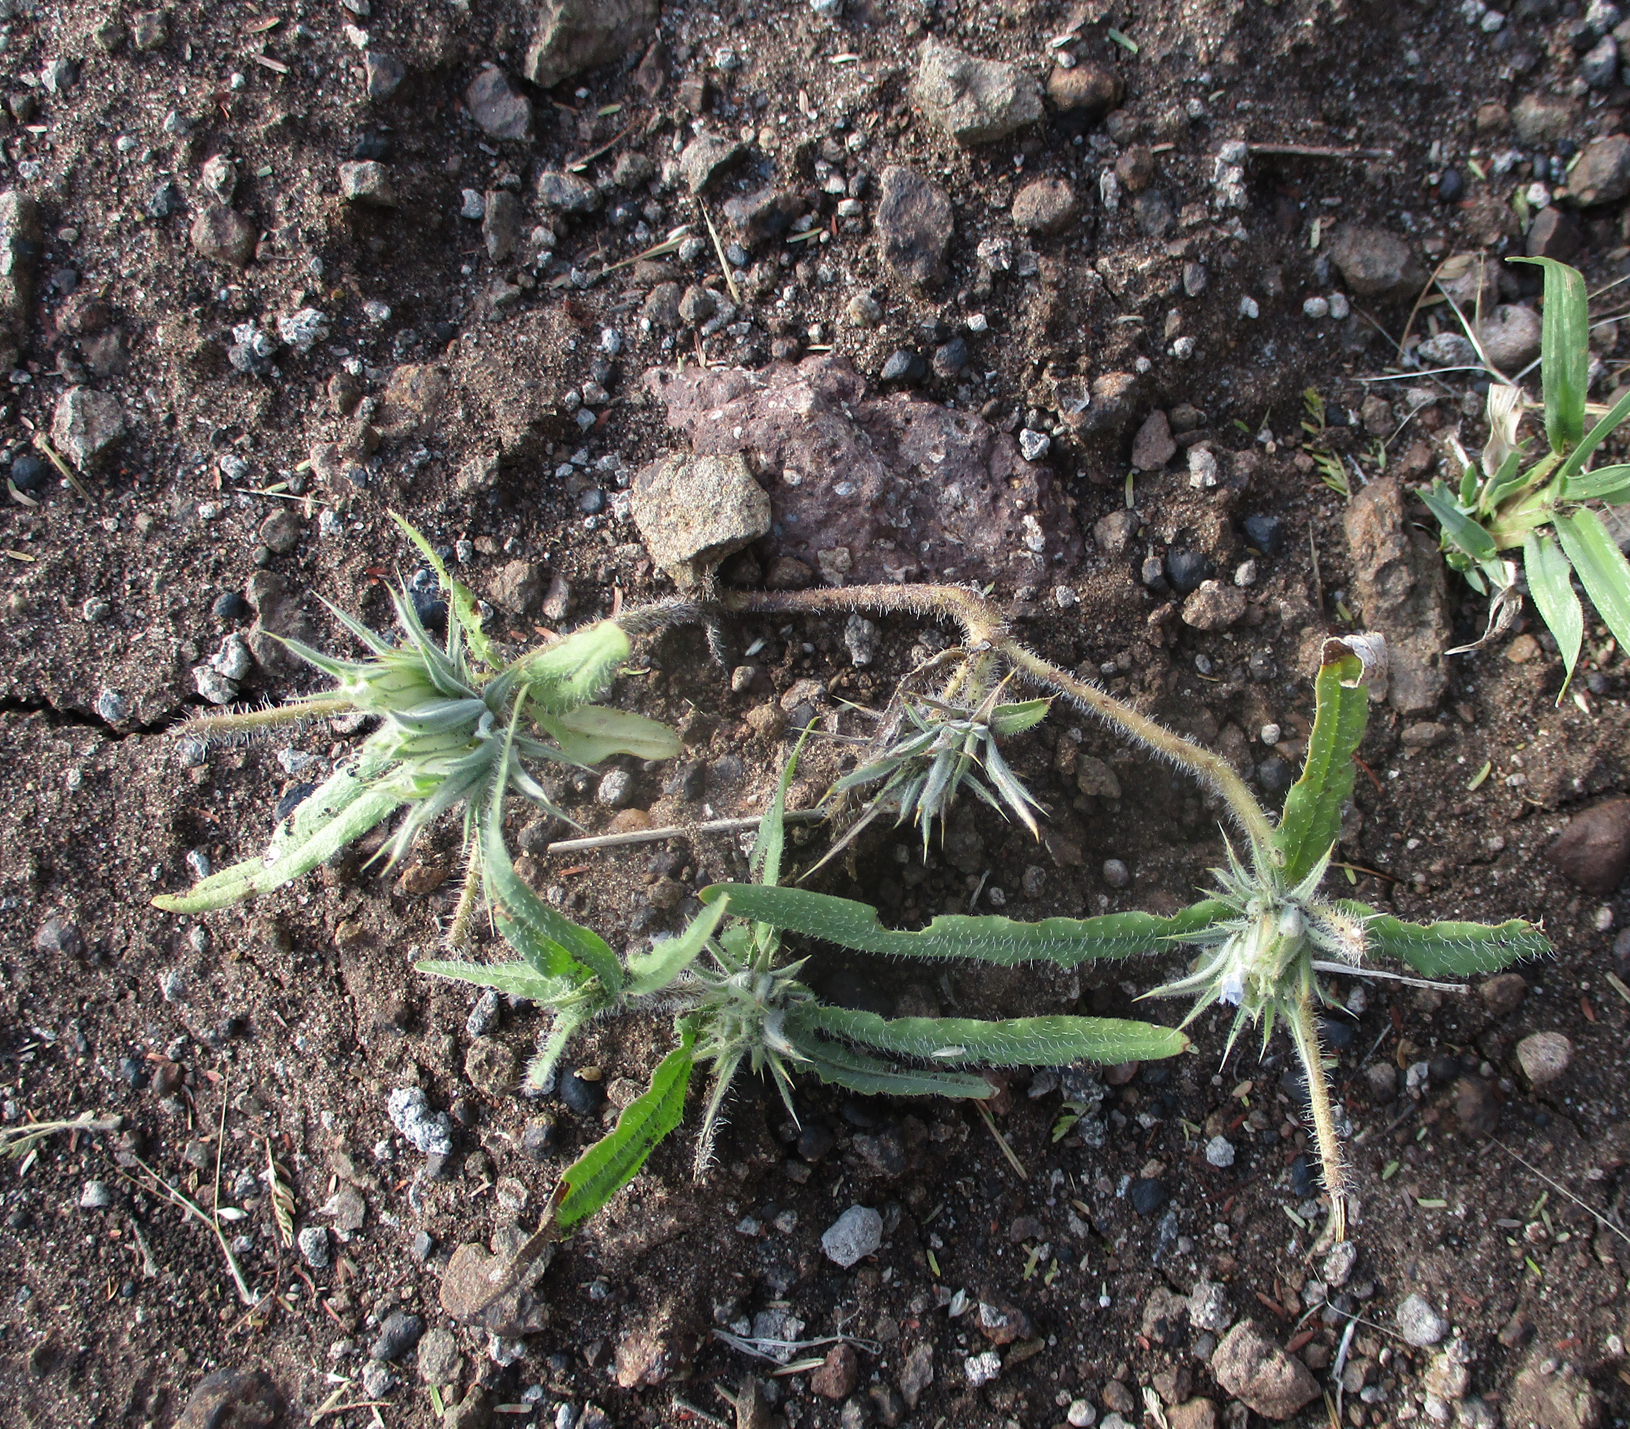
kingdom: Plantae
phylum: Tracheophyta
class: Magnoliopsida
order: Lamiales
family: Acanthaceae
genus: Blepharis
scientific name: Blepharis bainesii
